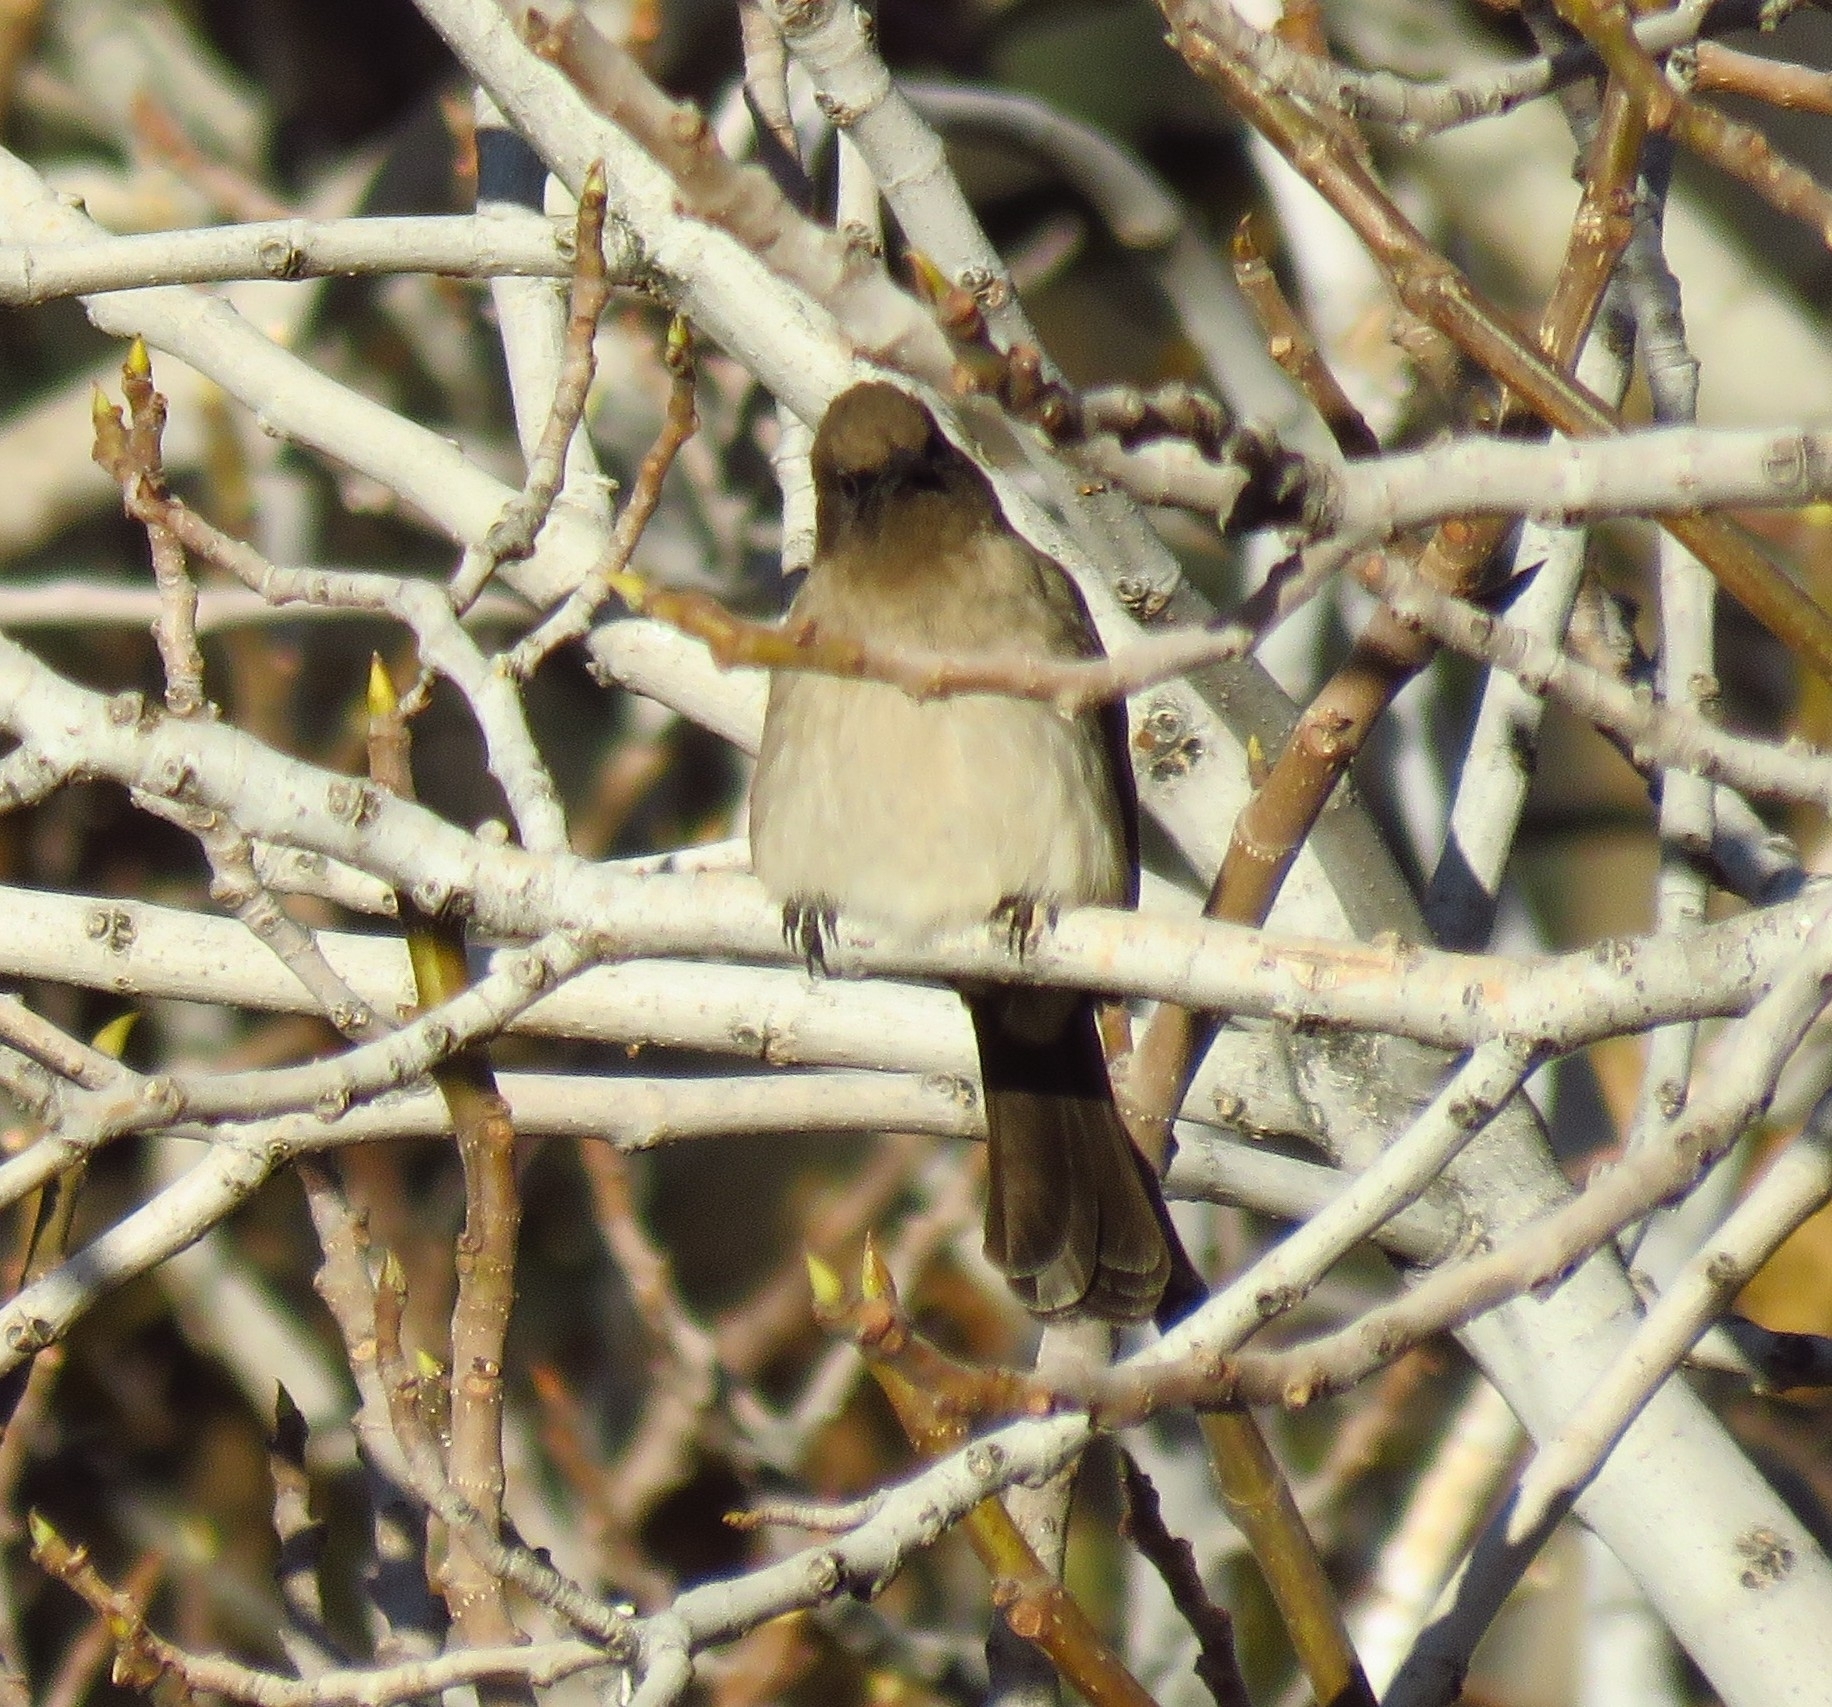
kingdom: Animalia
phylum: Chordata
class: Aves
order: Passeriformes
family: Pycnonotidae
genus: Pycnonotus
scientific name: Pycnonotus barbatus
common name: Common bulbul
